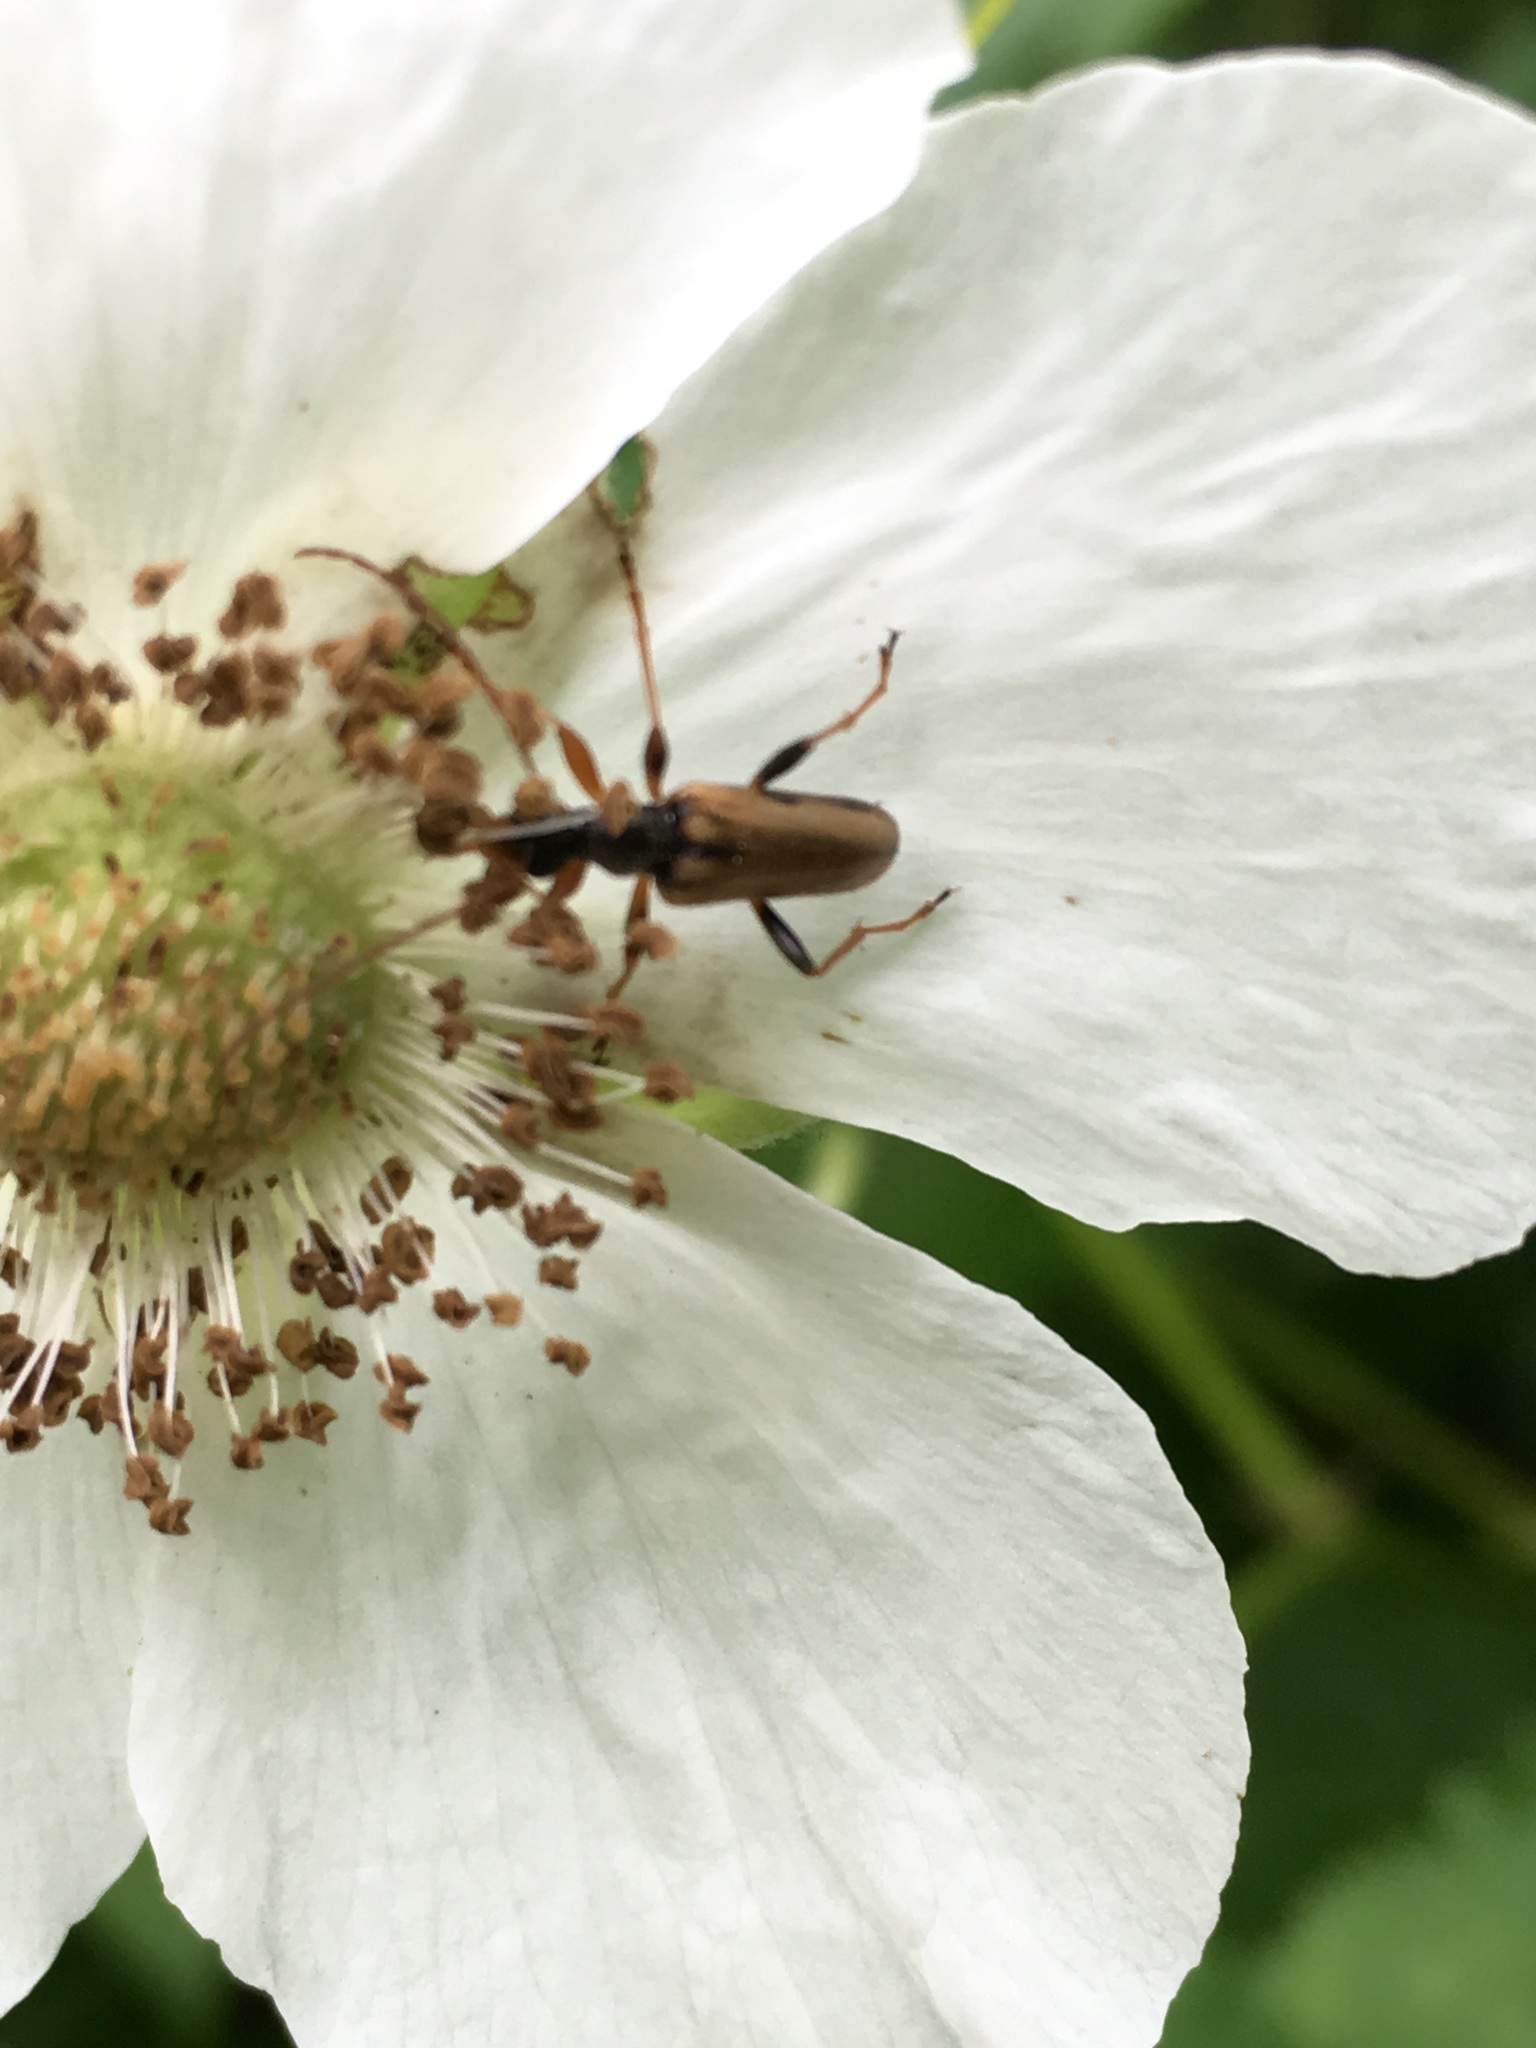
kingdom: Animalia
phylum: Arthropoda
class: Insecta
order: Coleoptera
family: Cerambycidae
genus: Pidonia
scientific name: Pidonia scripta
